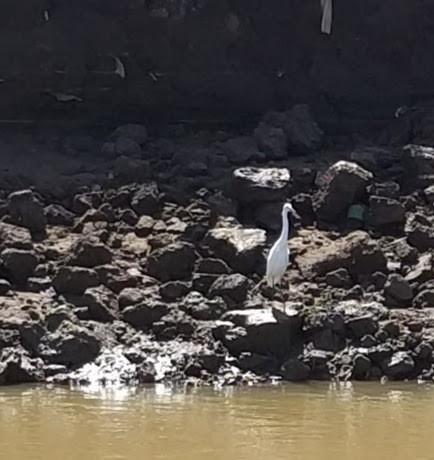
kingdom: Animalia
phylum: Chordata
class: Aves
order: Pelecaniformes
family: Ardeidae
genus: Ardea
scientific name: Ardea alba
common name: Great egret
